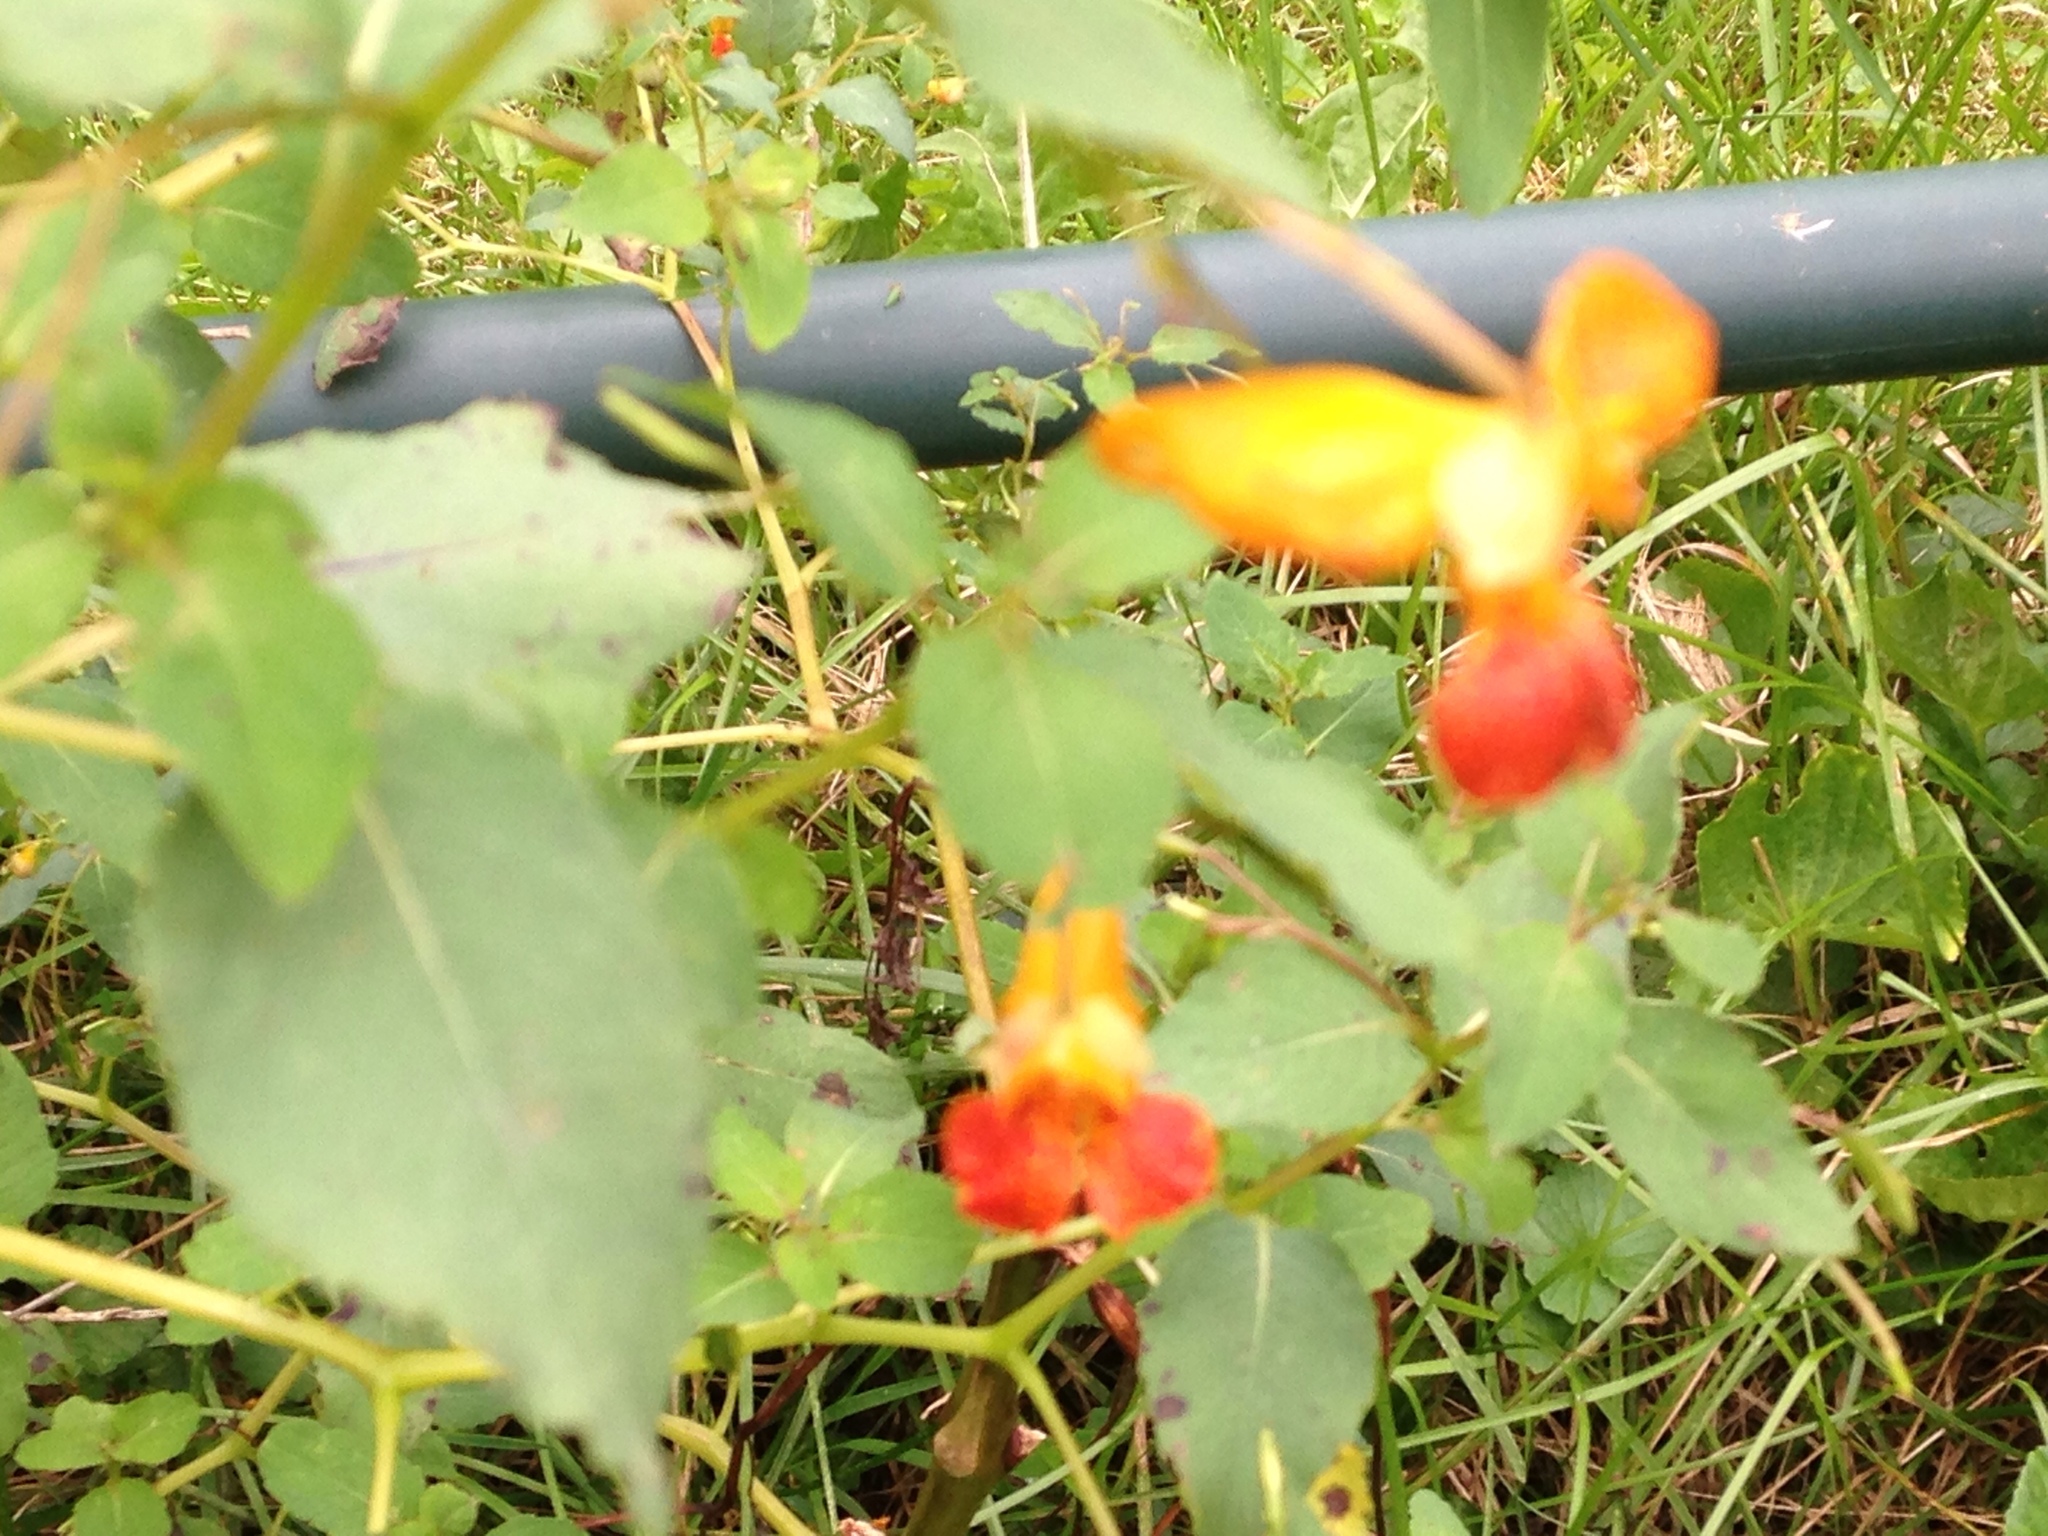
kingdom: Plantae
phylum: Tracheophyta
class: Magnoliopsida
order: Ericales
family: Balsaminaceae
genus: Impatiens
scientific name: Impatiens capensis
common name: Orange balsam
